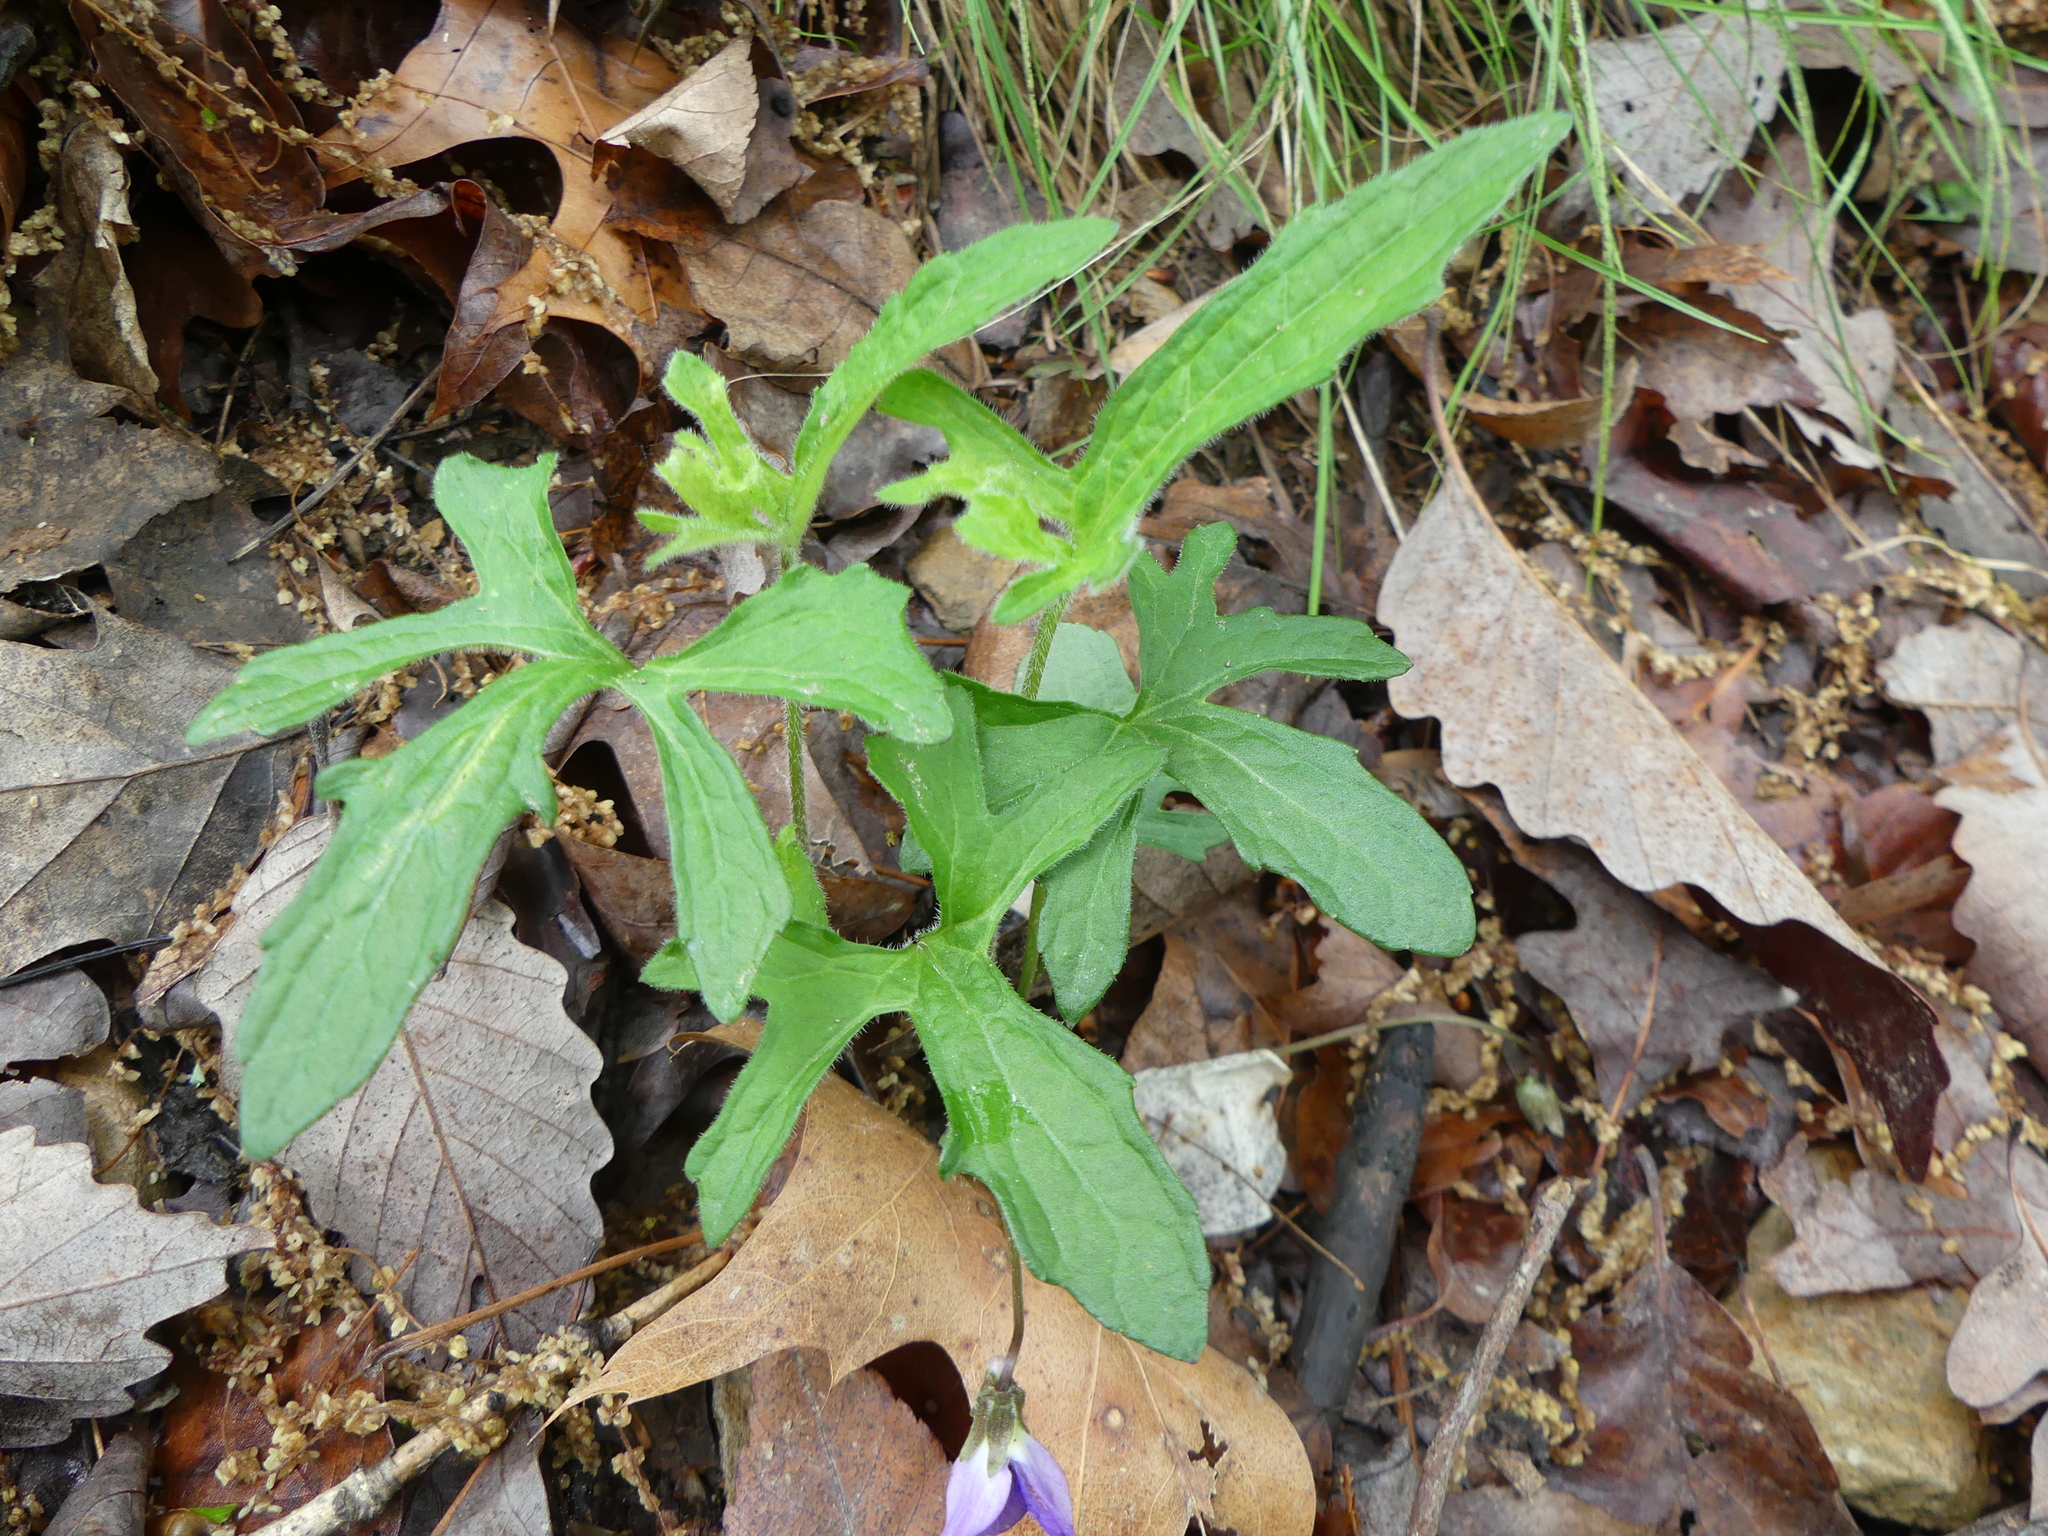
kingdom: Plantae
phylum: Tracheophyta
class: Magnoliopsida
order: Malpighiales
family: Violaceae
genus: Viola
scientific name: Viola palmata
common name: Early blue violet
